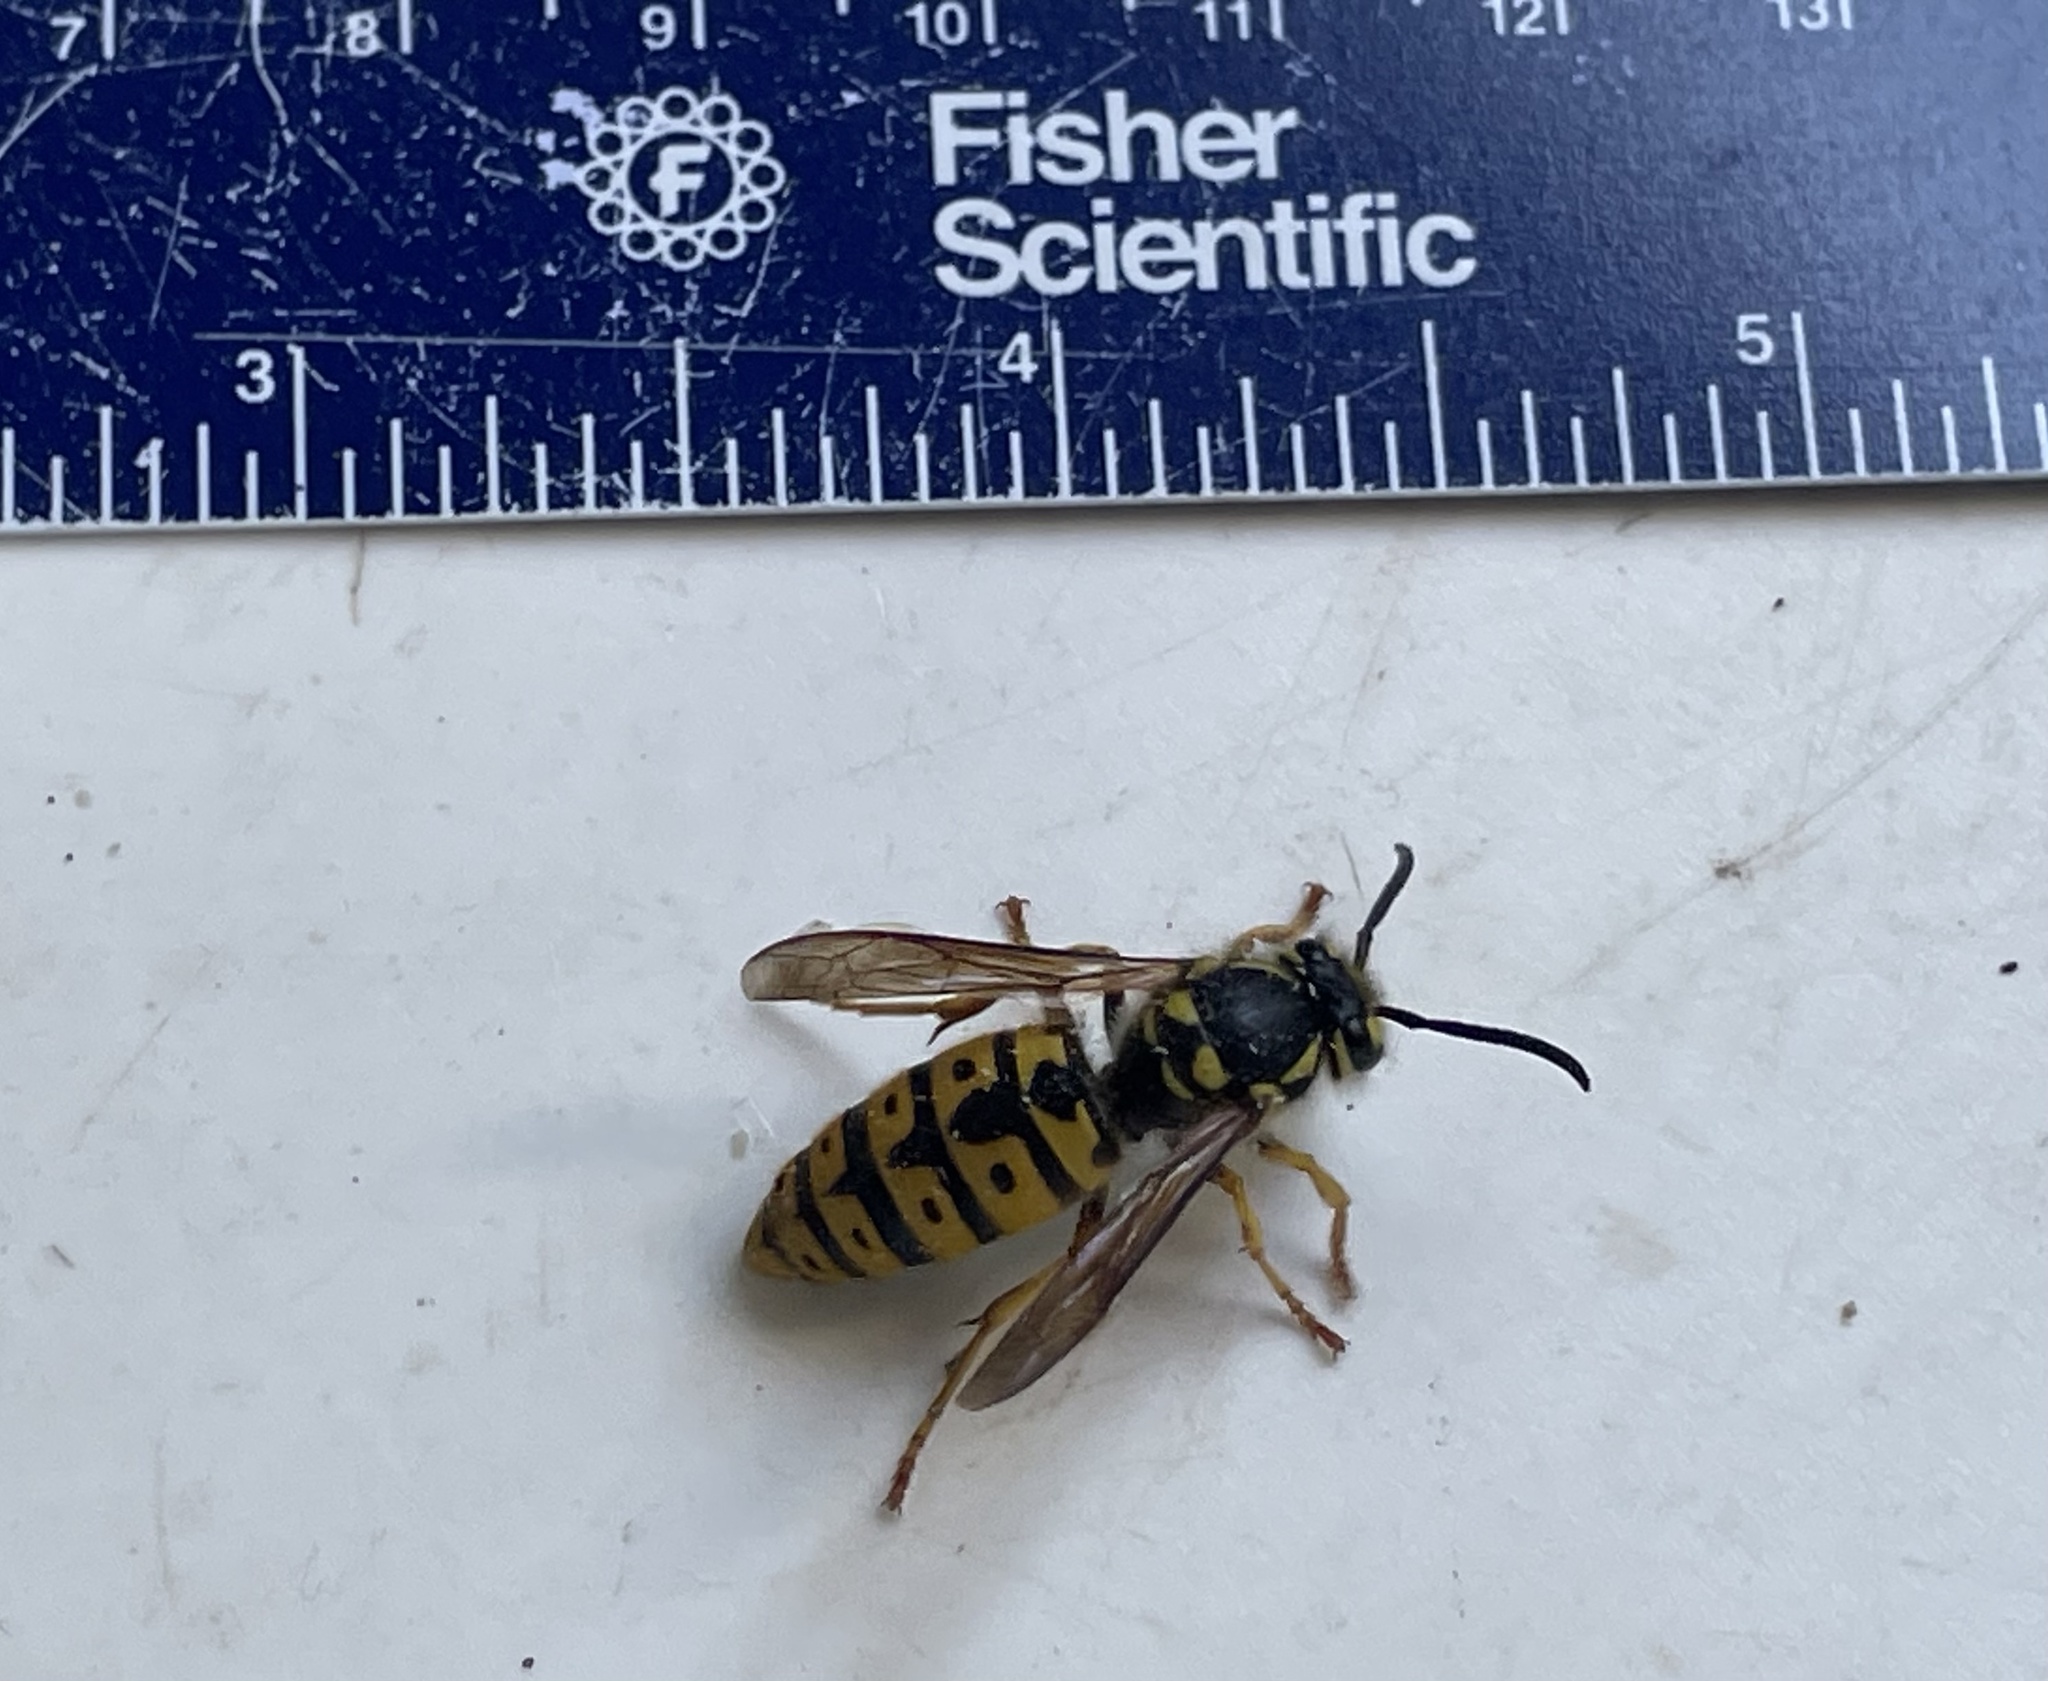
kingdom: Animalia
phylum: Arthropoda
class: Insecta
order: Hymenoptera
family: Vespidae
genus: Vespula
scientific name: Vespula germanica
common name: German wasp
